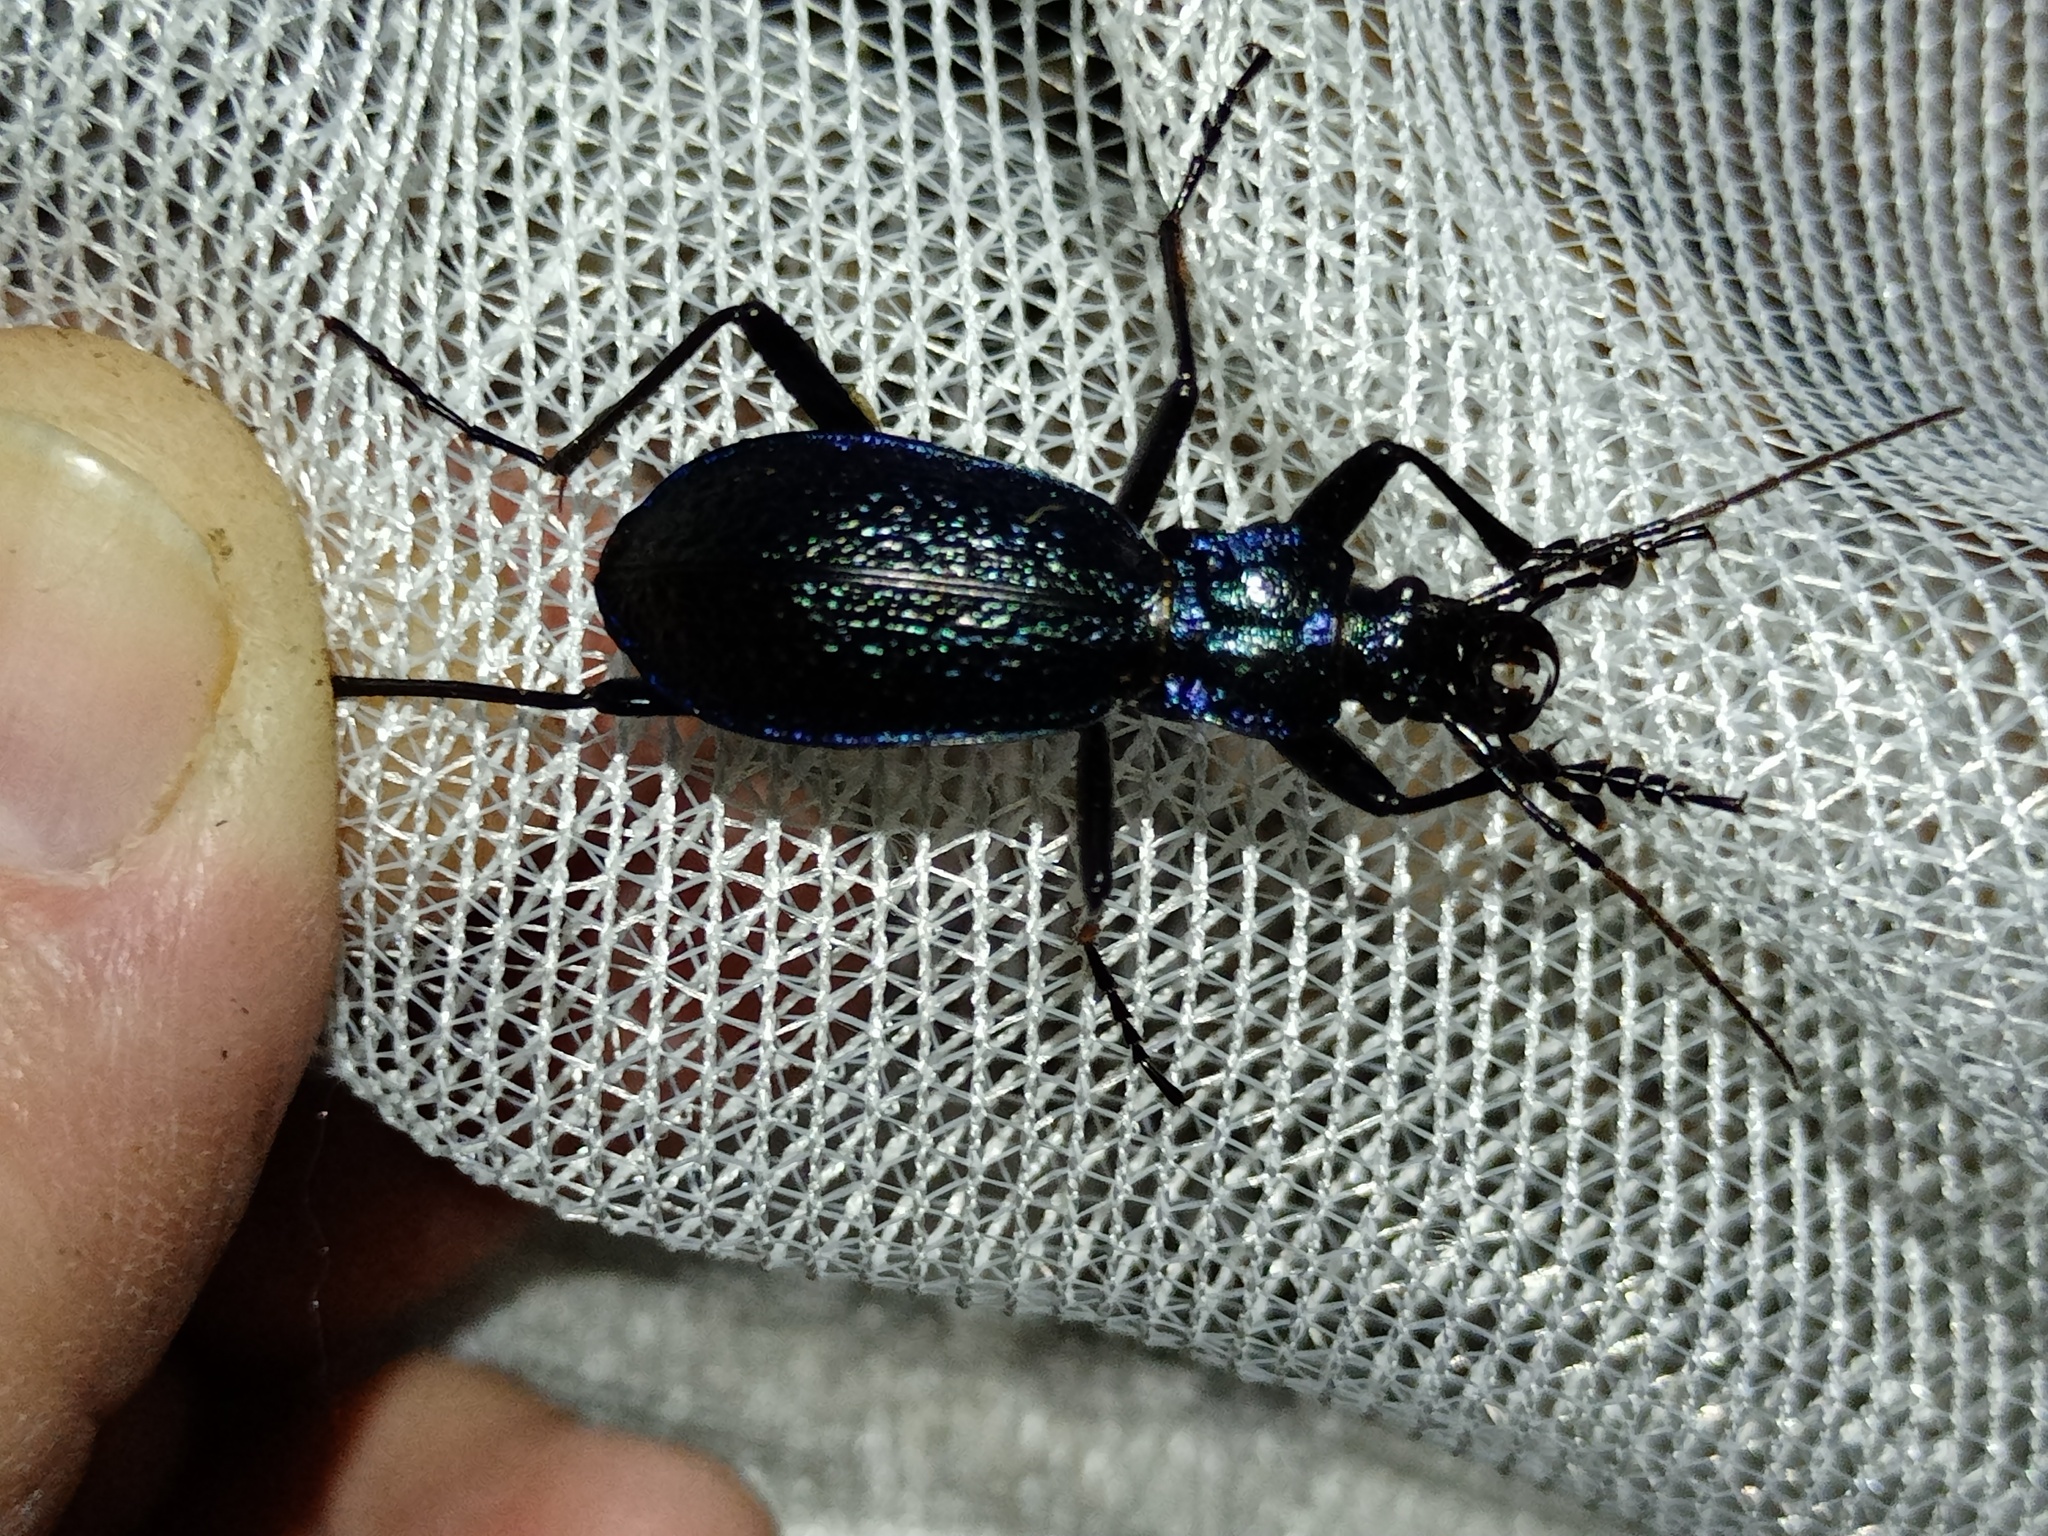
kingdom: Animalia
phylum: Arthropoda
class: Insecta
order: Coleoptera
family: Carabidae
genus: Carabus
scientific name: Carabus intricatus
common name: Blue ground beetle
